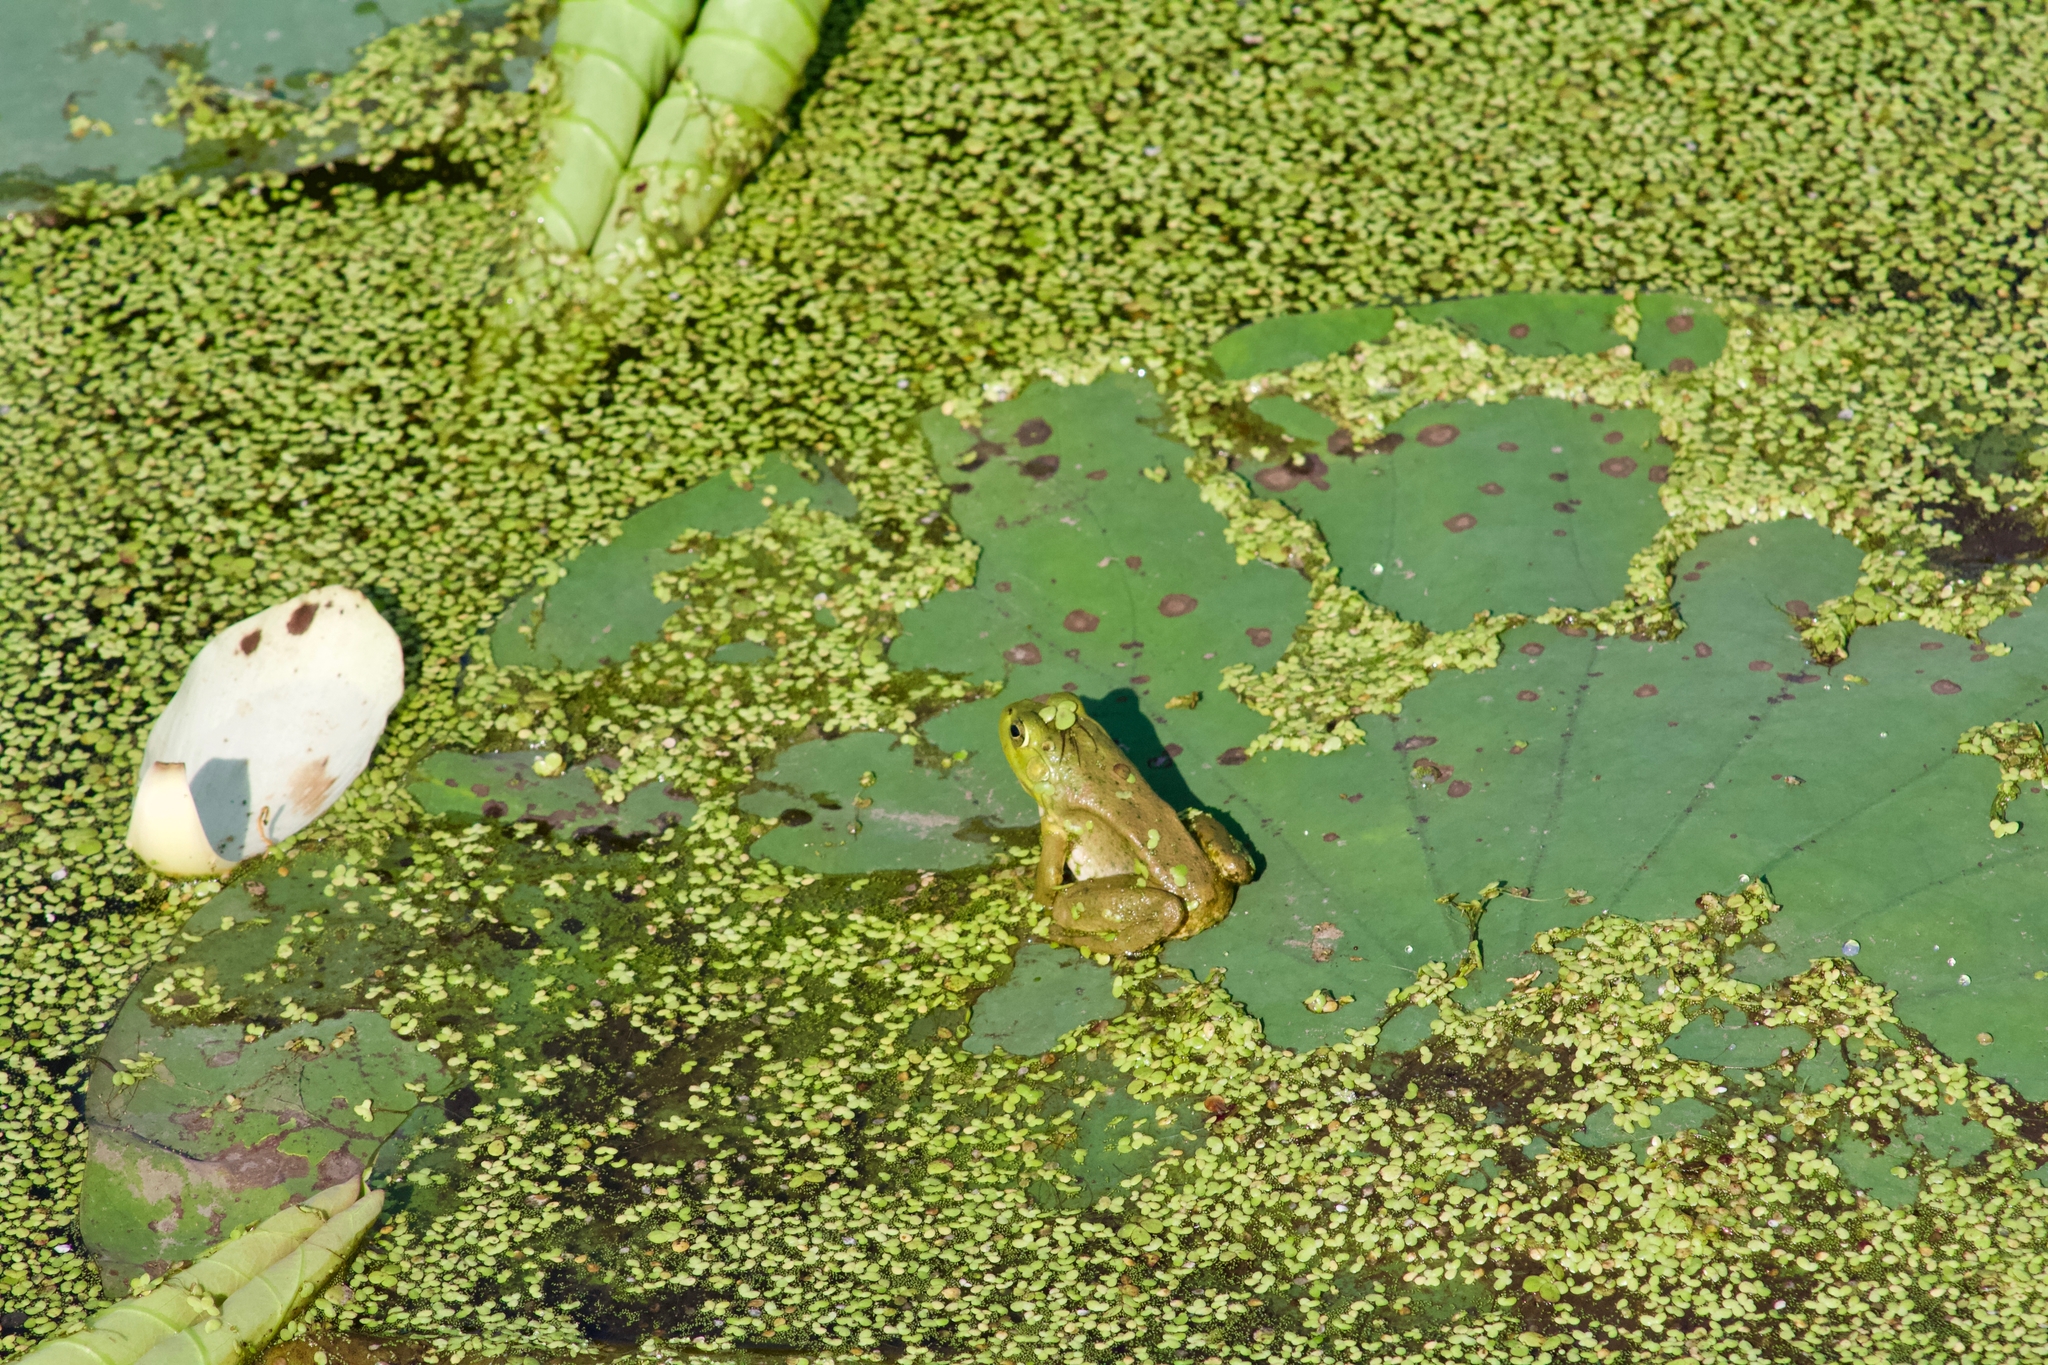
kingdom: Animalia
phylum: Chordata
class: Amphibia
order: Anura
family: Ranidae
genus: Lithobates
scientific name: Lithobates catesbeianus
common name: American bullfrog
